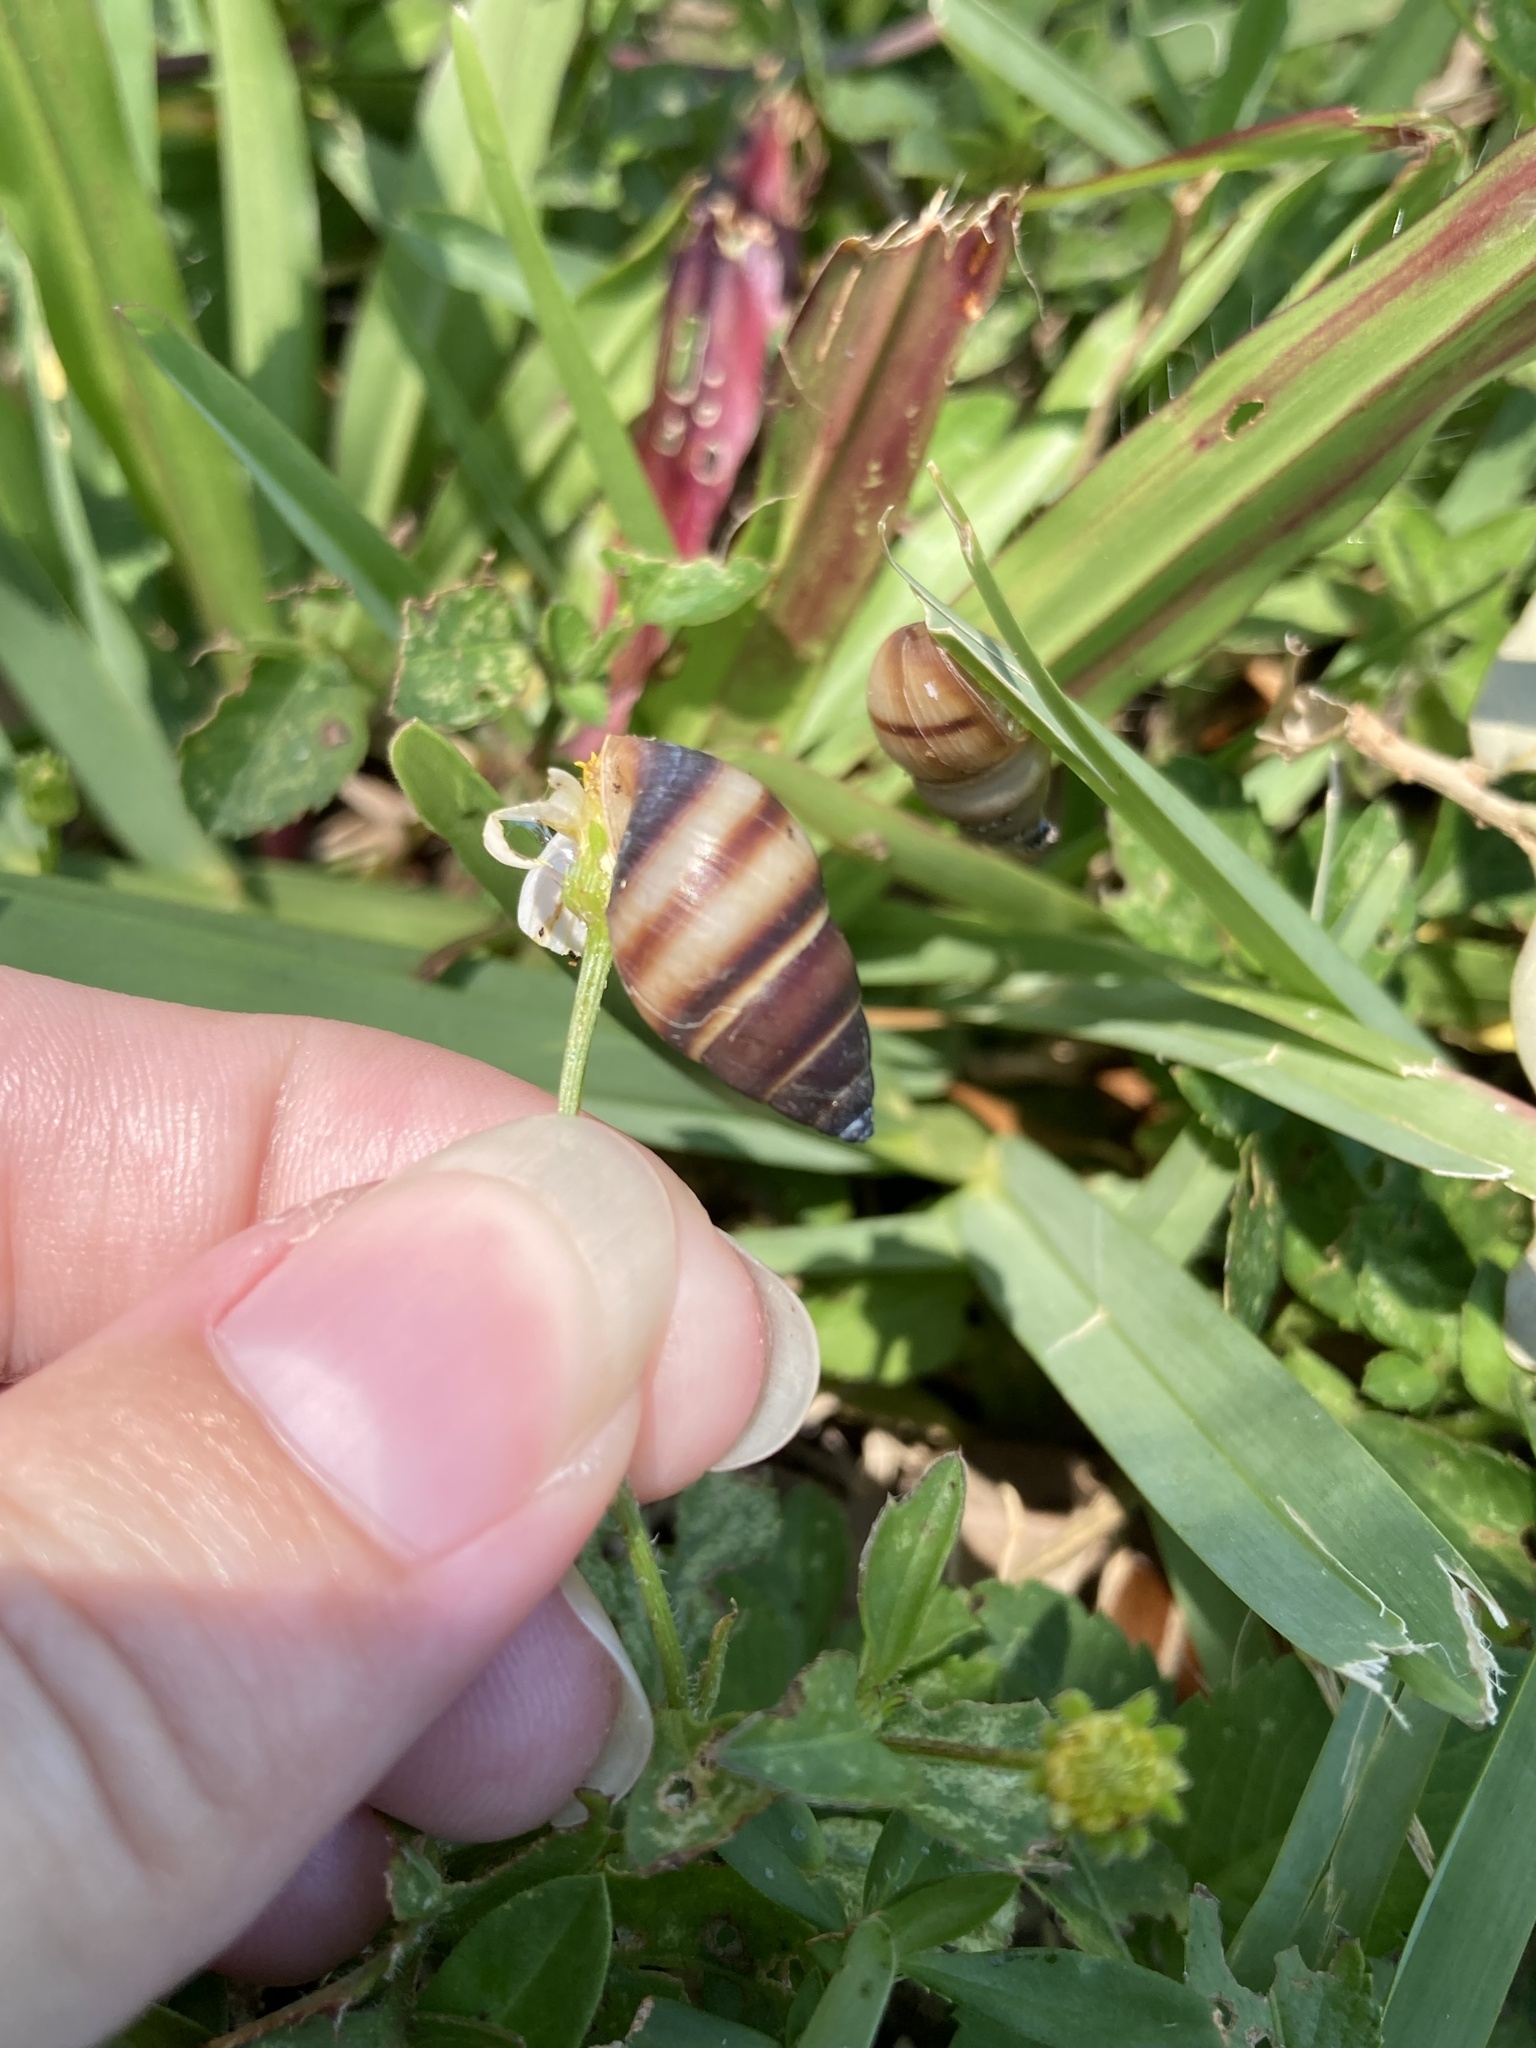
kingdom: Animalia
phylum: Mollusca
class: Gastropoda
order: Stylommatophora
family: Bulimulidae
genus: Bulimulus
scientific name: Bulimulus guadalupensis
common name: West indian bulimulus
